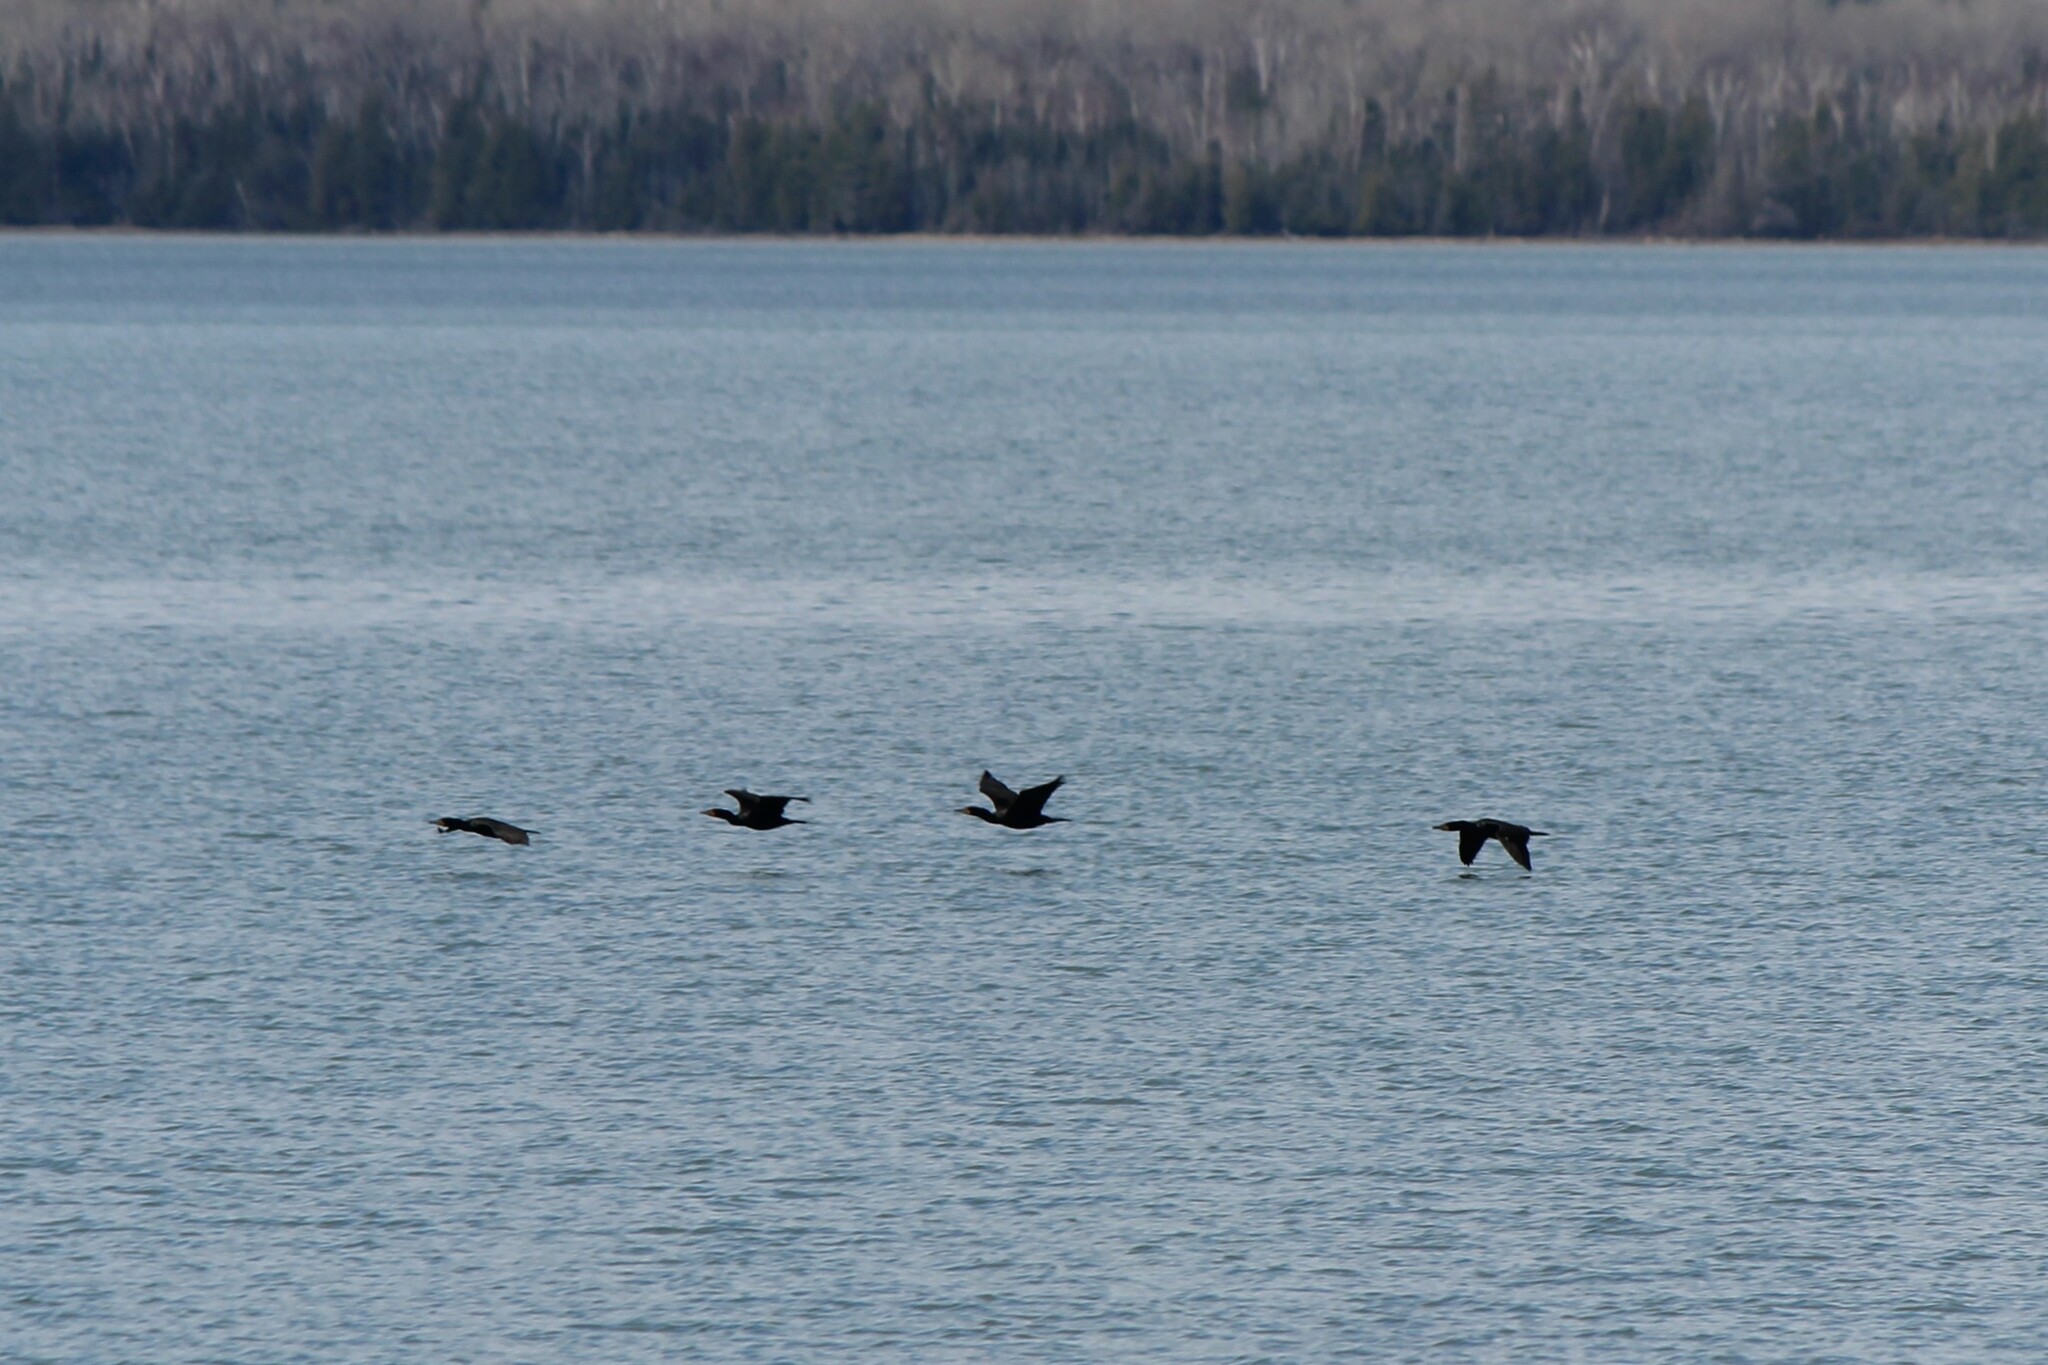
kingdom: Animalia
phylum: Chordata
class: Aves
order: Suliformes
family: Phalacrocoracidae
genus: Phalacrocorax
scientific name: Phalacrocorax auritus
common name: Double-crested cormorant
